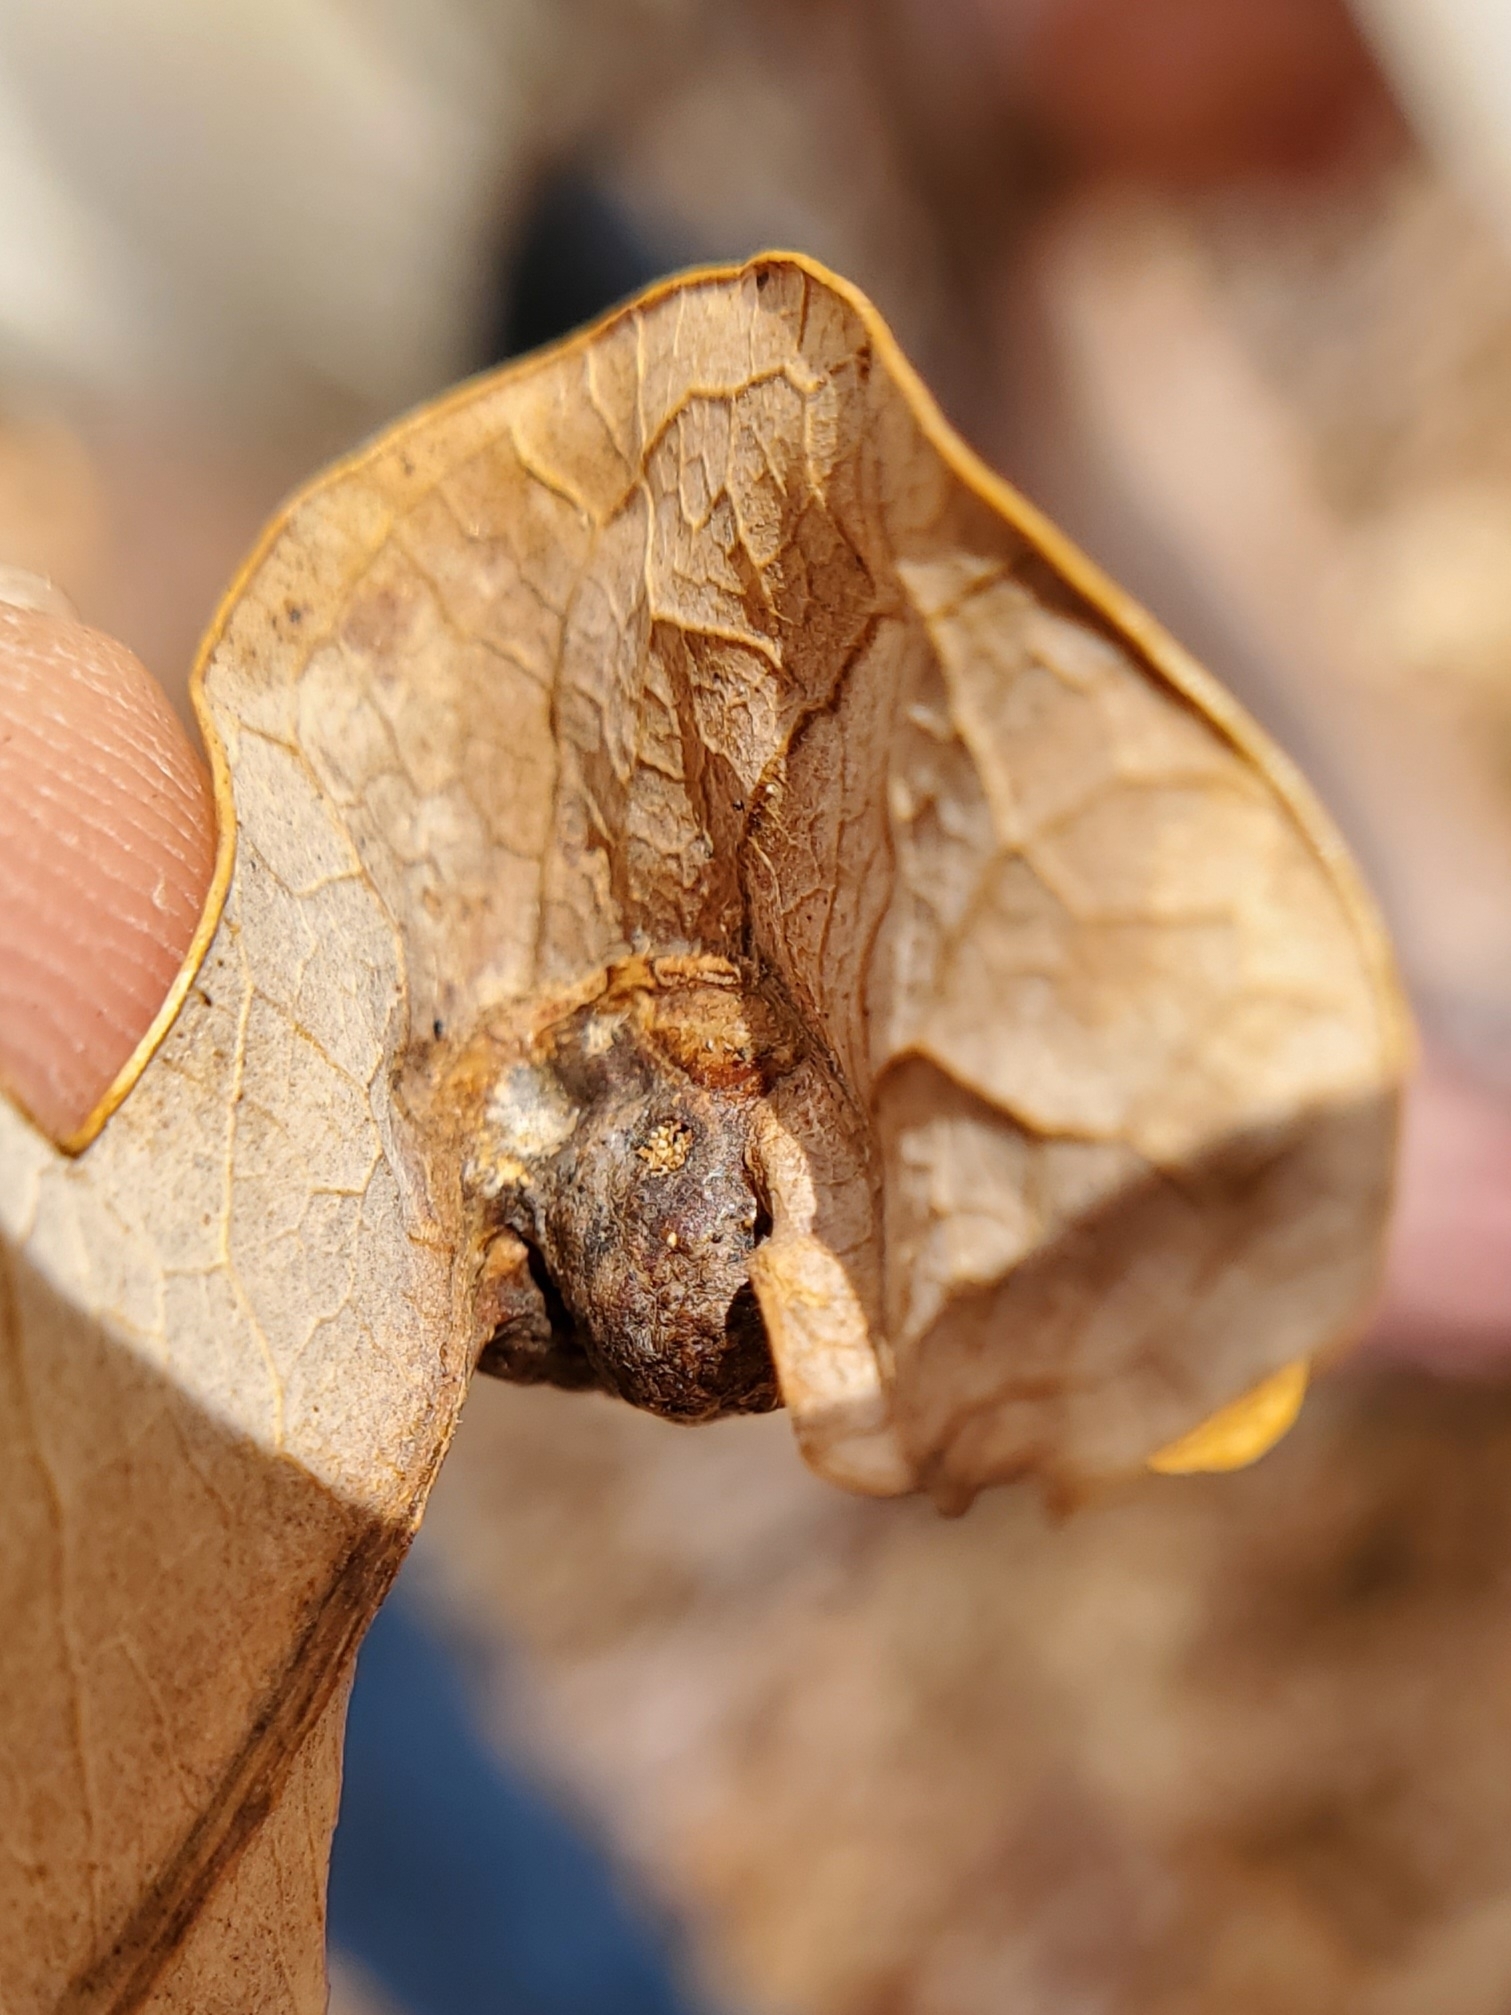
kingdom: Animalia
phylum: Arthropoda
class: Insecta
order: Hymenoptera
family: Cynipidae
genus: Andricus
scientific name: Andricus
